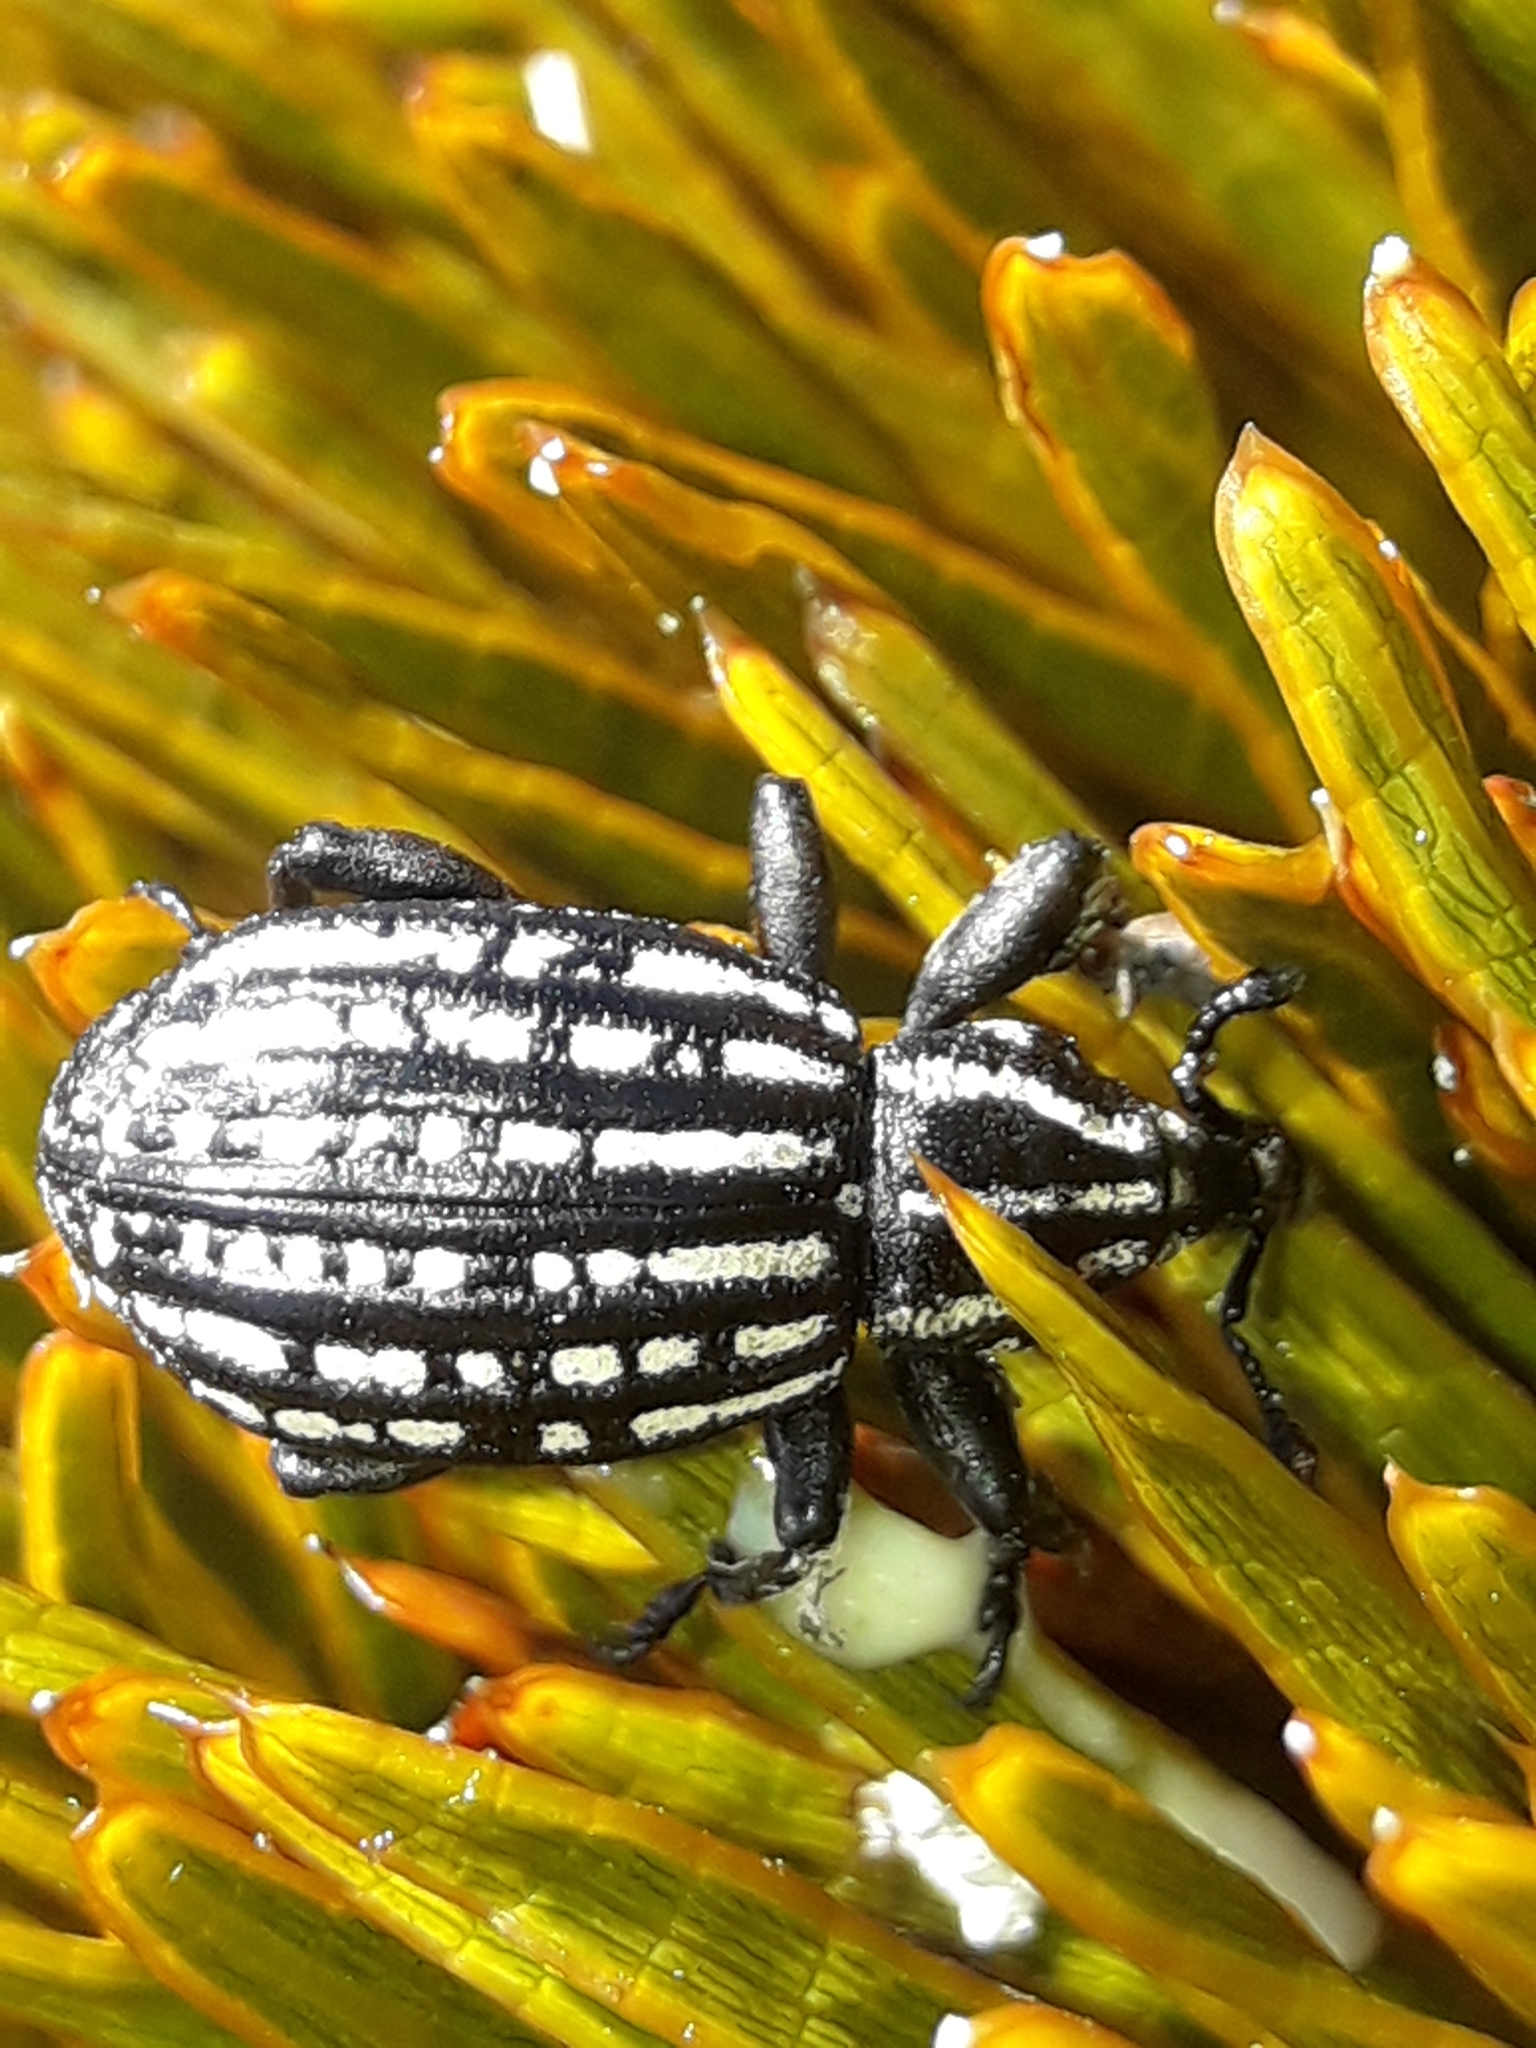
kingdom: Animalia
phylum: Arthropoda
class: Insecta
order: Coleoptera
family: Curculionidae
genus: Lyperobius
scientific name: Lyperobius hudsoni
